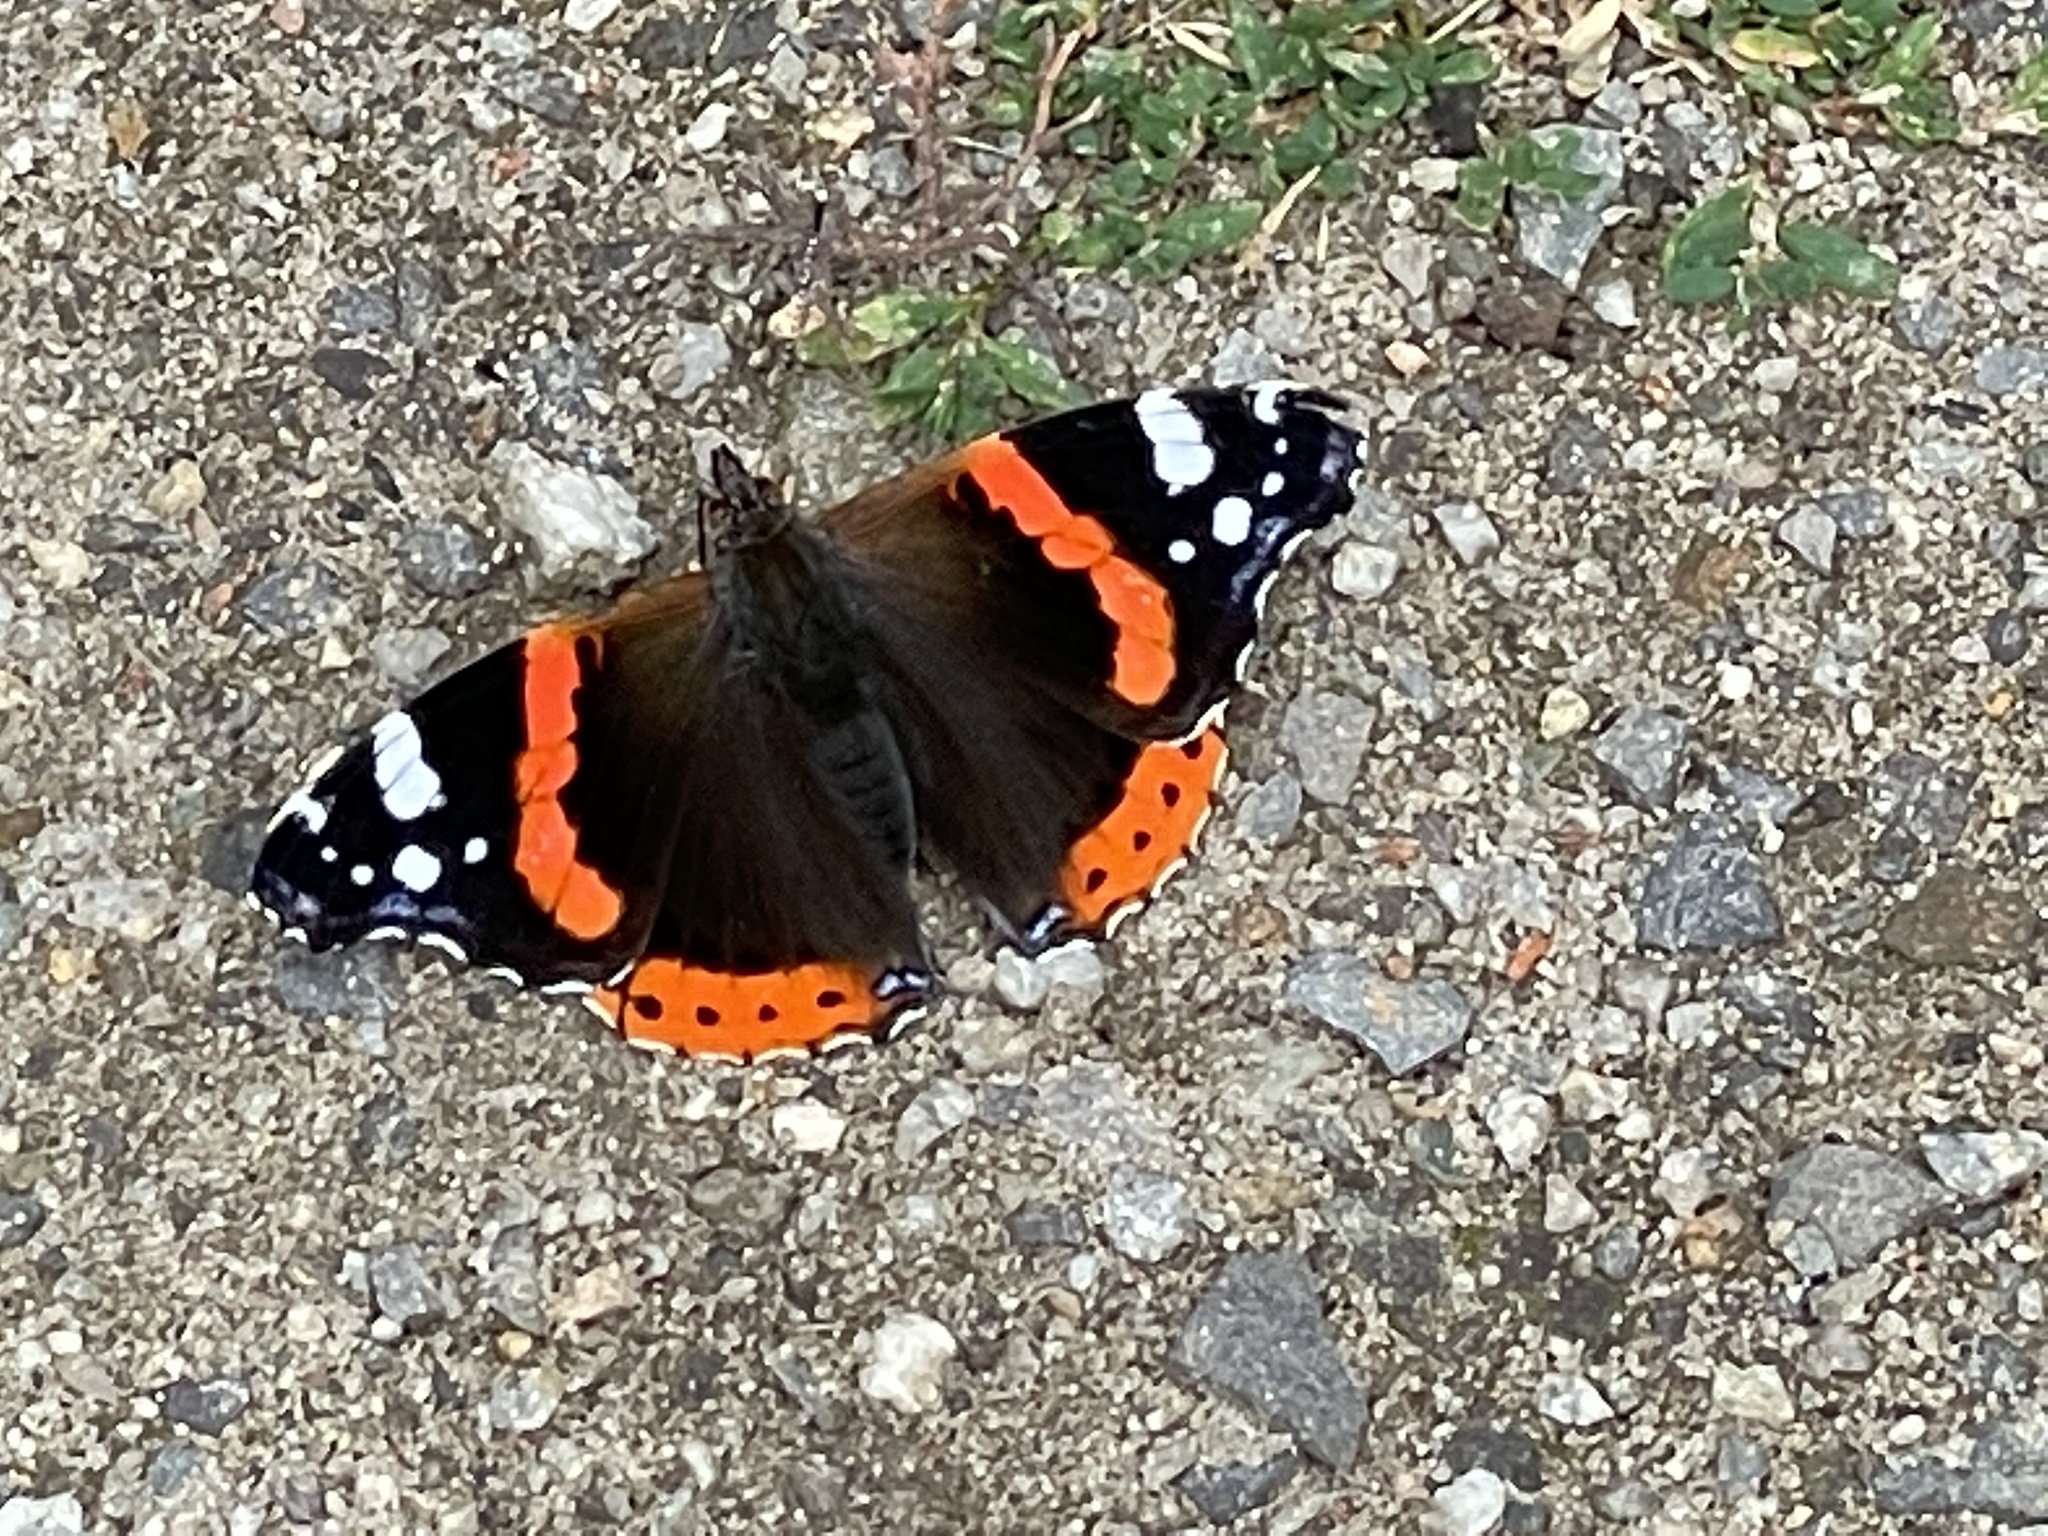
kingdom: Animalia
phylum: Arthropoda
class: Insecta
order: Lepidoptera
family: Nymphalidae
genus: Vanessa
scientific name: Vanessa atalanta
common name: Red admiral
